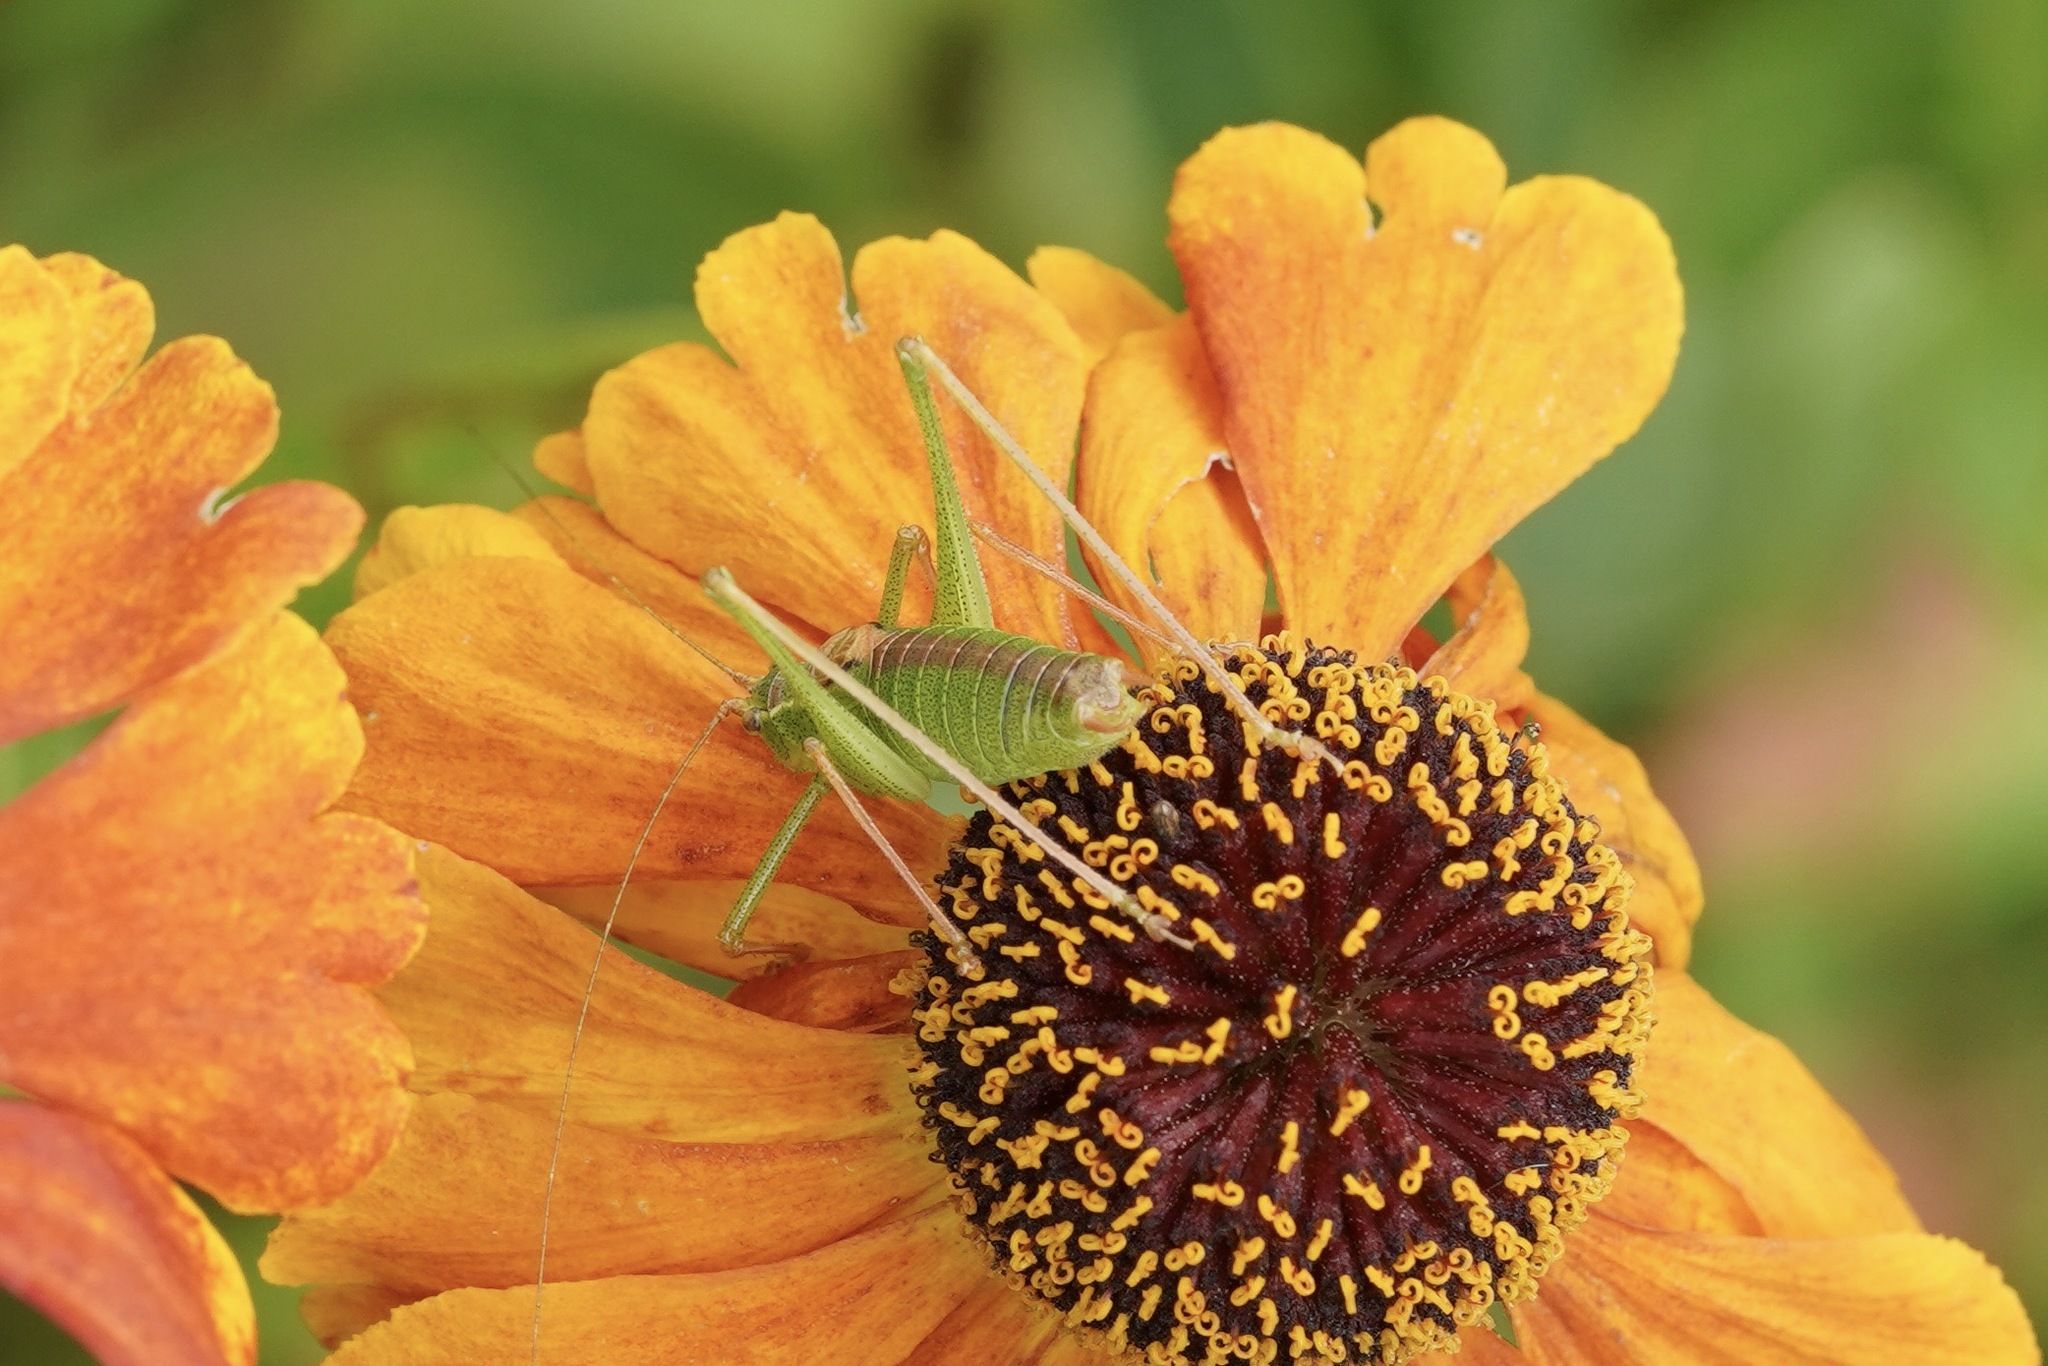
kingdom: Animalia
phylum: Arthropoda
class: Insecta
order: Orthoptera
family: Tettigoniidae
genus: Leptophyes
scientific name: Leptophyes punctatissima
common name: Speckled bush-cricket
